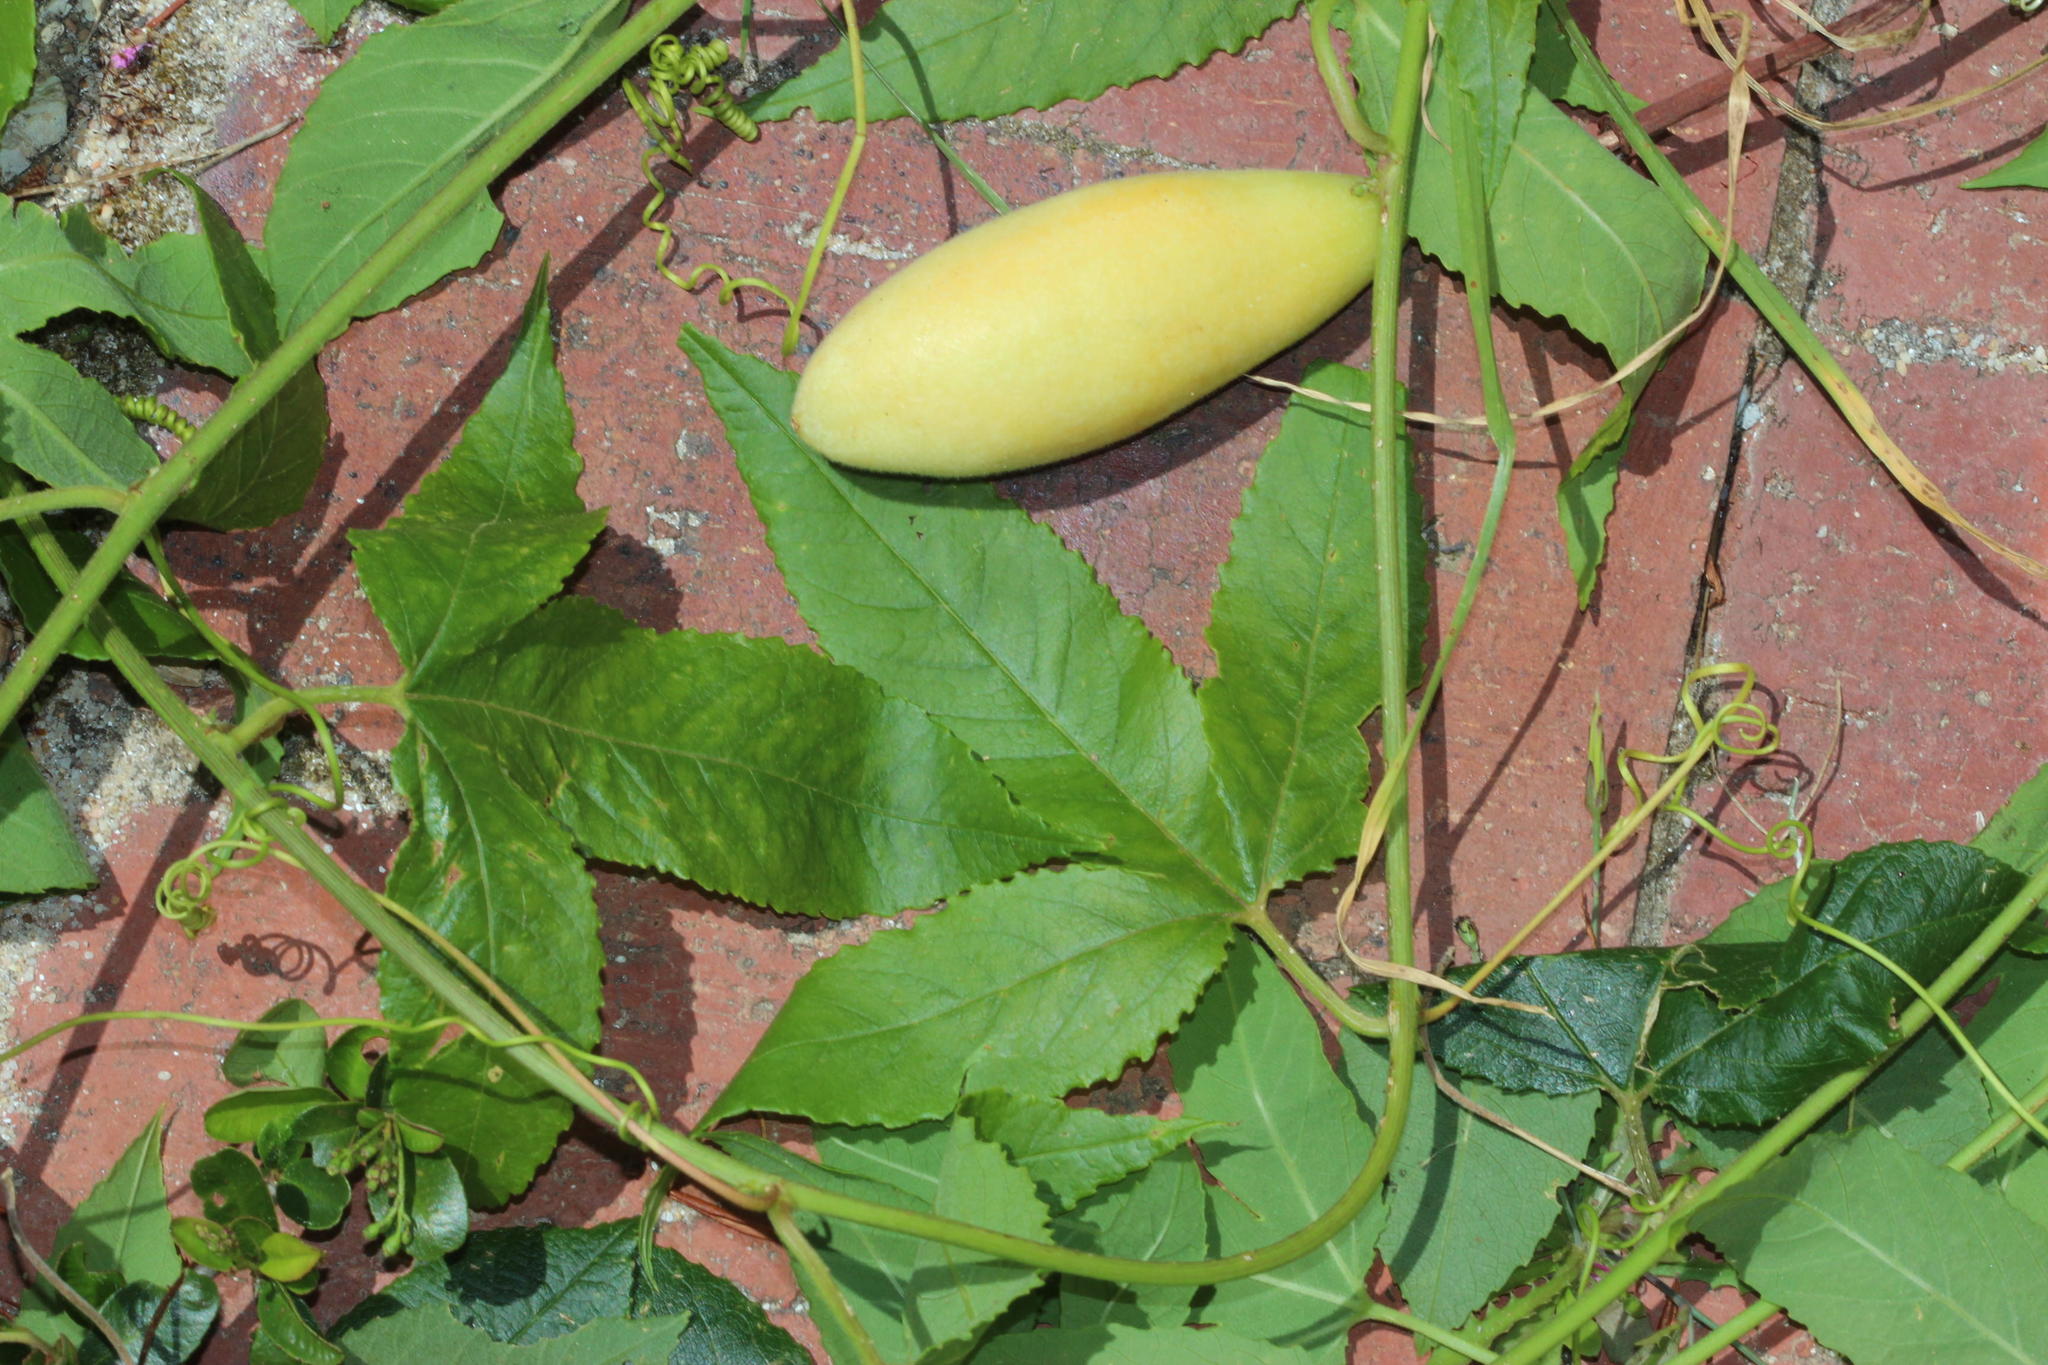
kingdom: Plantae
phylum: Tracheophyta
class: Magnoliopsida
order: Malpighiales
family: Passifloraceae
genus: Passiflora
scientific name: Passiflora tarminiana
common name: Banana poka
